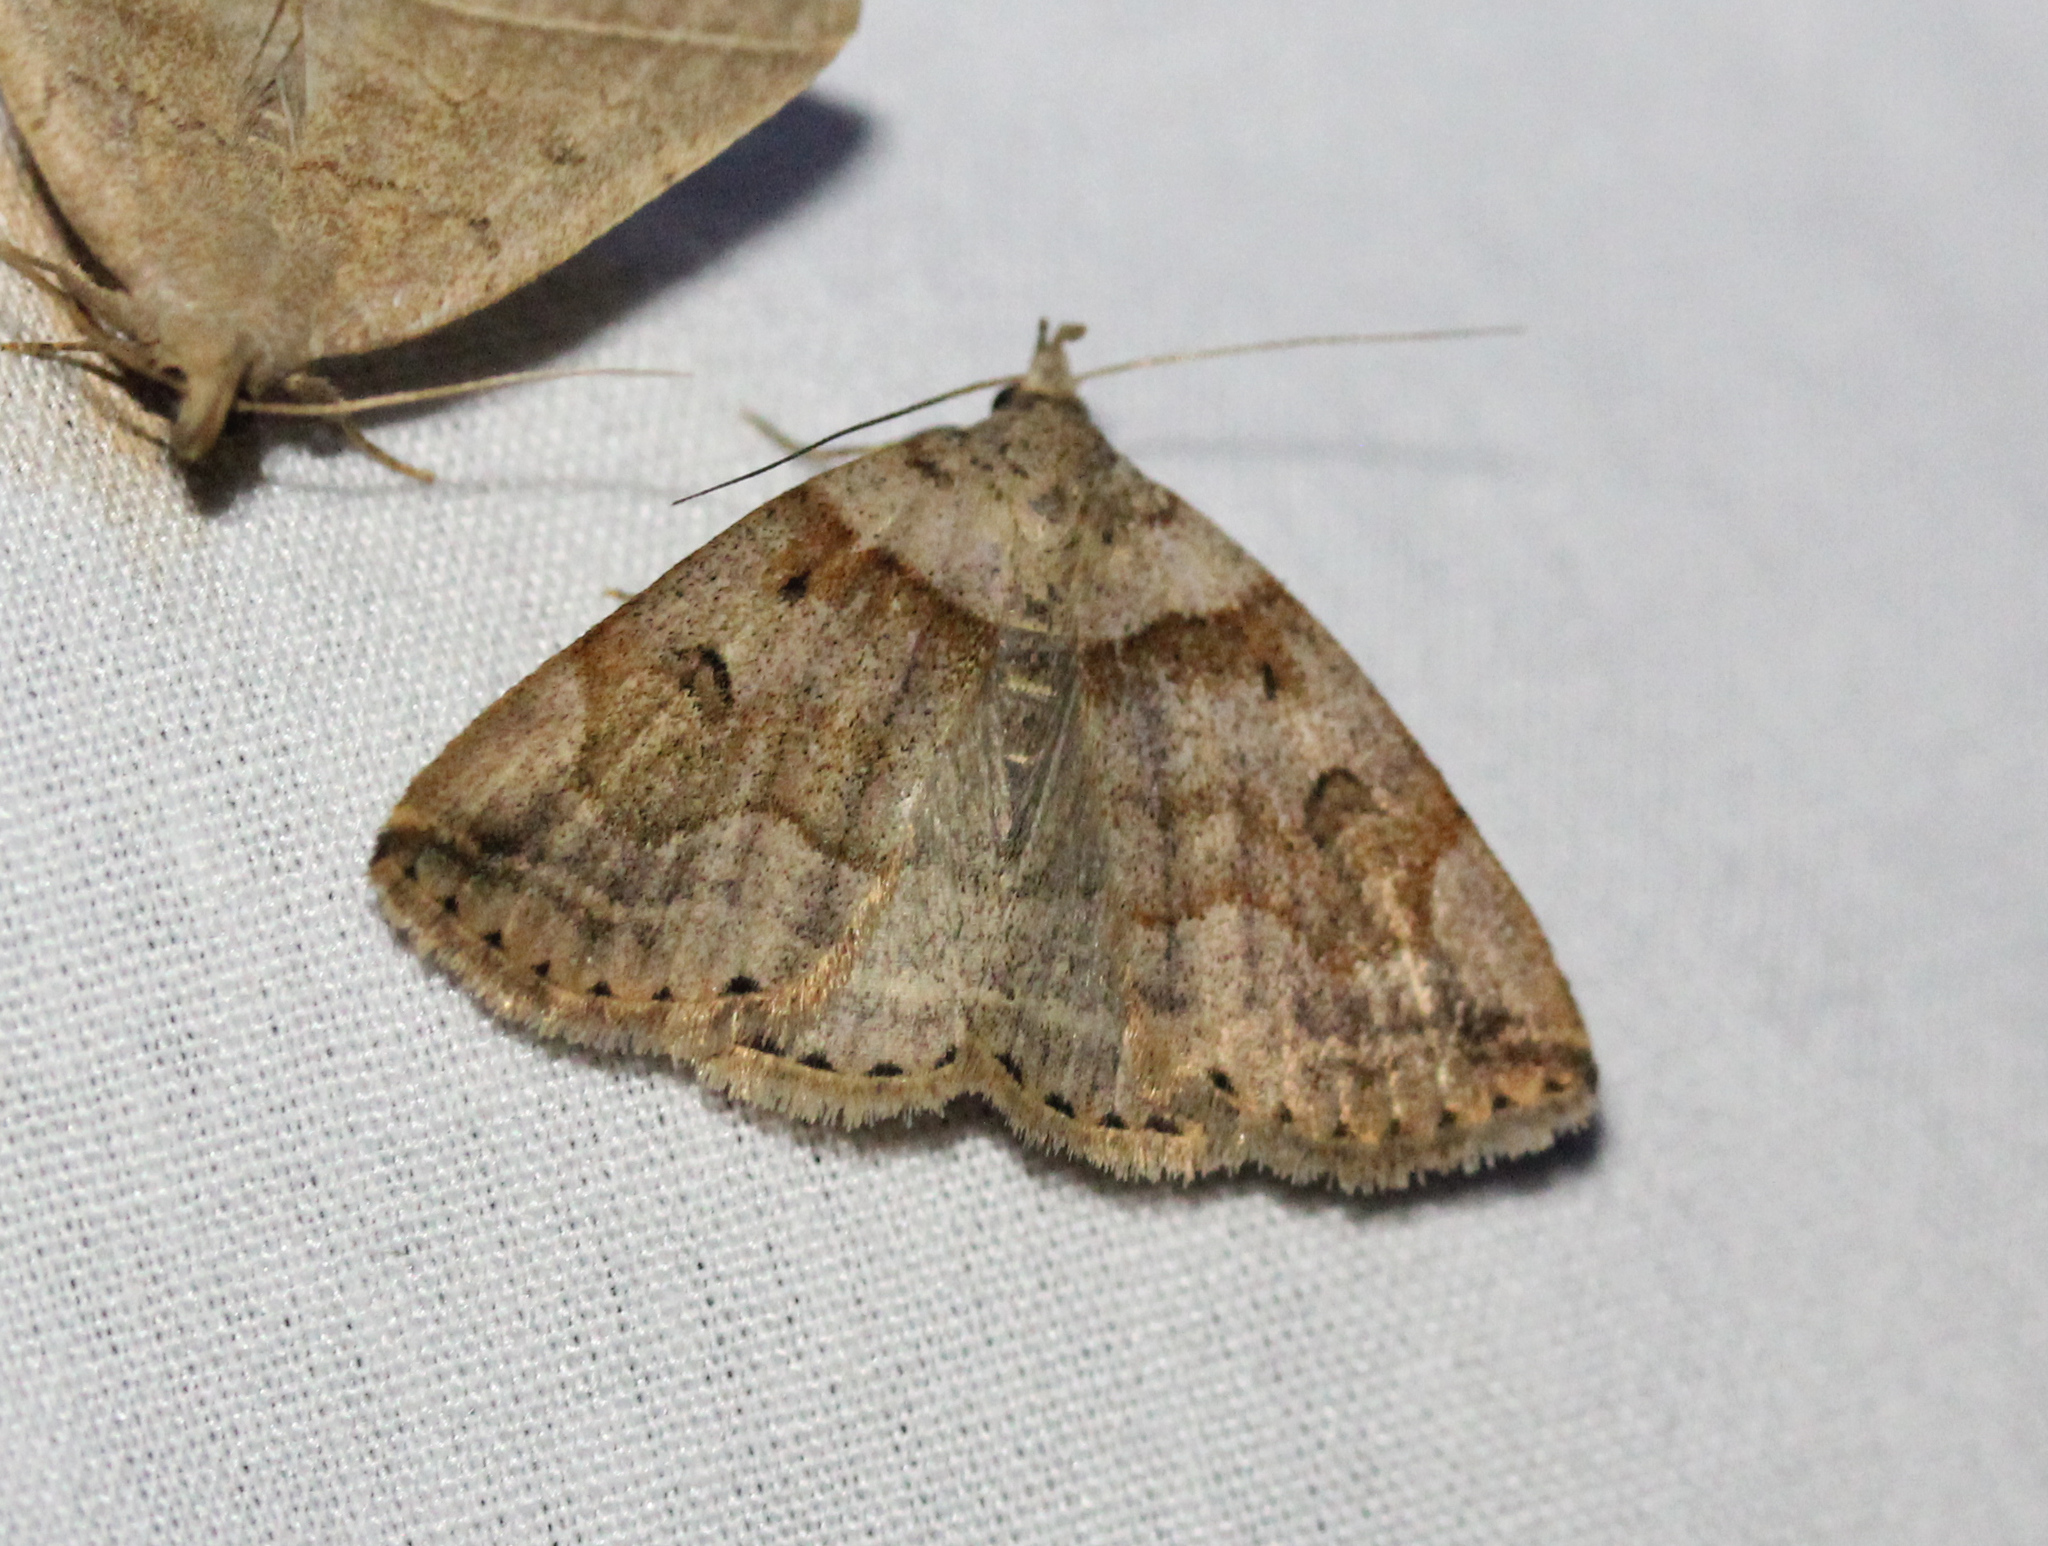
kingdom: Animalia
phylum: Arthropoda
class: Insecta
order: Lepidoptera
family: Erebidae
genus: Zanclognatha
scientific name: Zanclognatha laevigata
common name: Variable fan-foot
